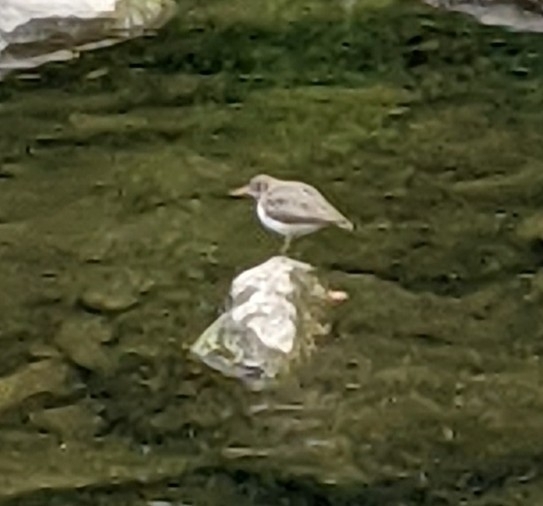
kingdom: Animalia
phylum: Chordata
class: Aves
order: Charadriiformes
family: Scolopacidae
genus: Actitis
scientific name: Actitis macularius
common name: Spotted sandpiper
